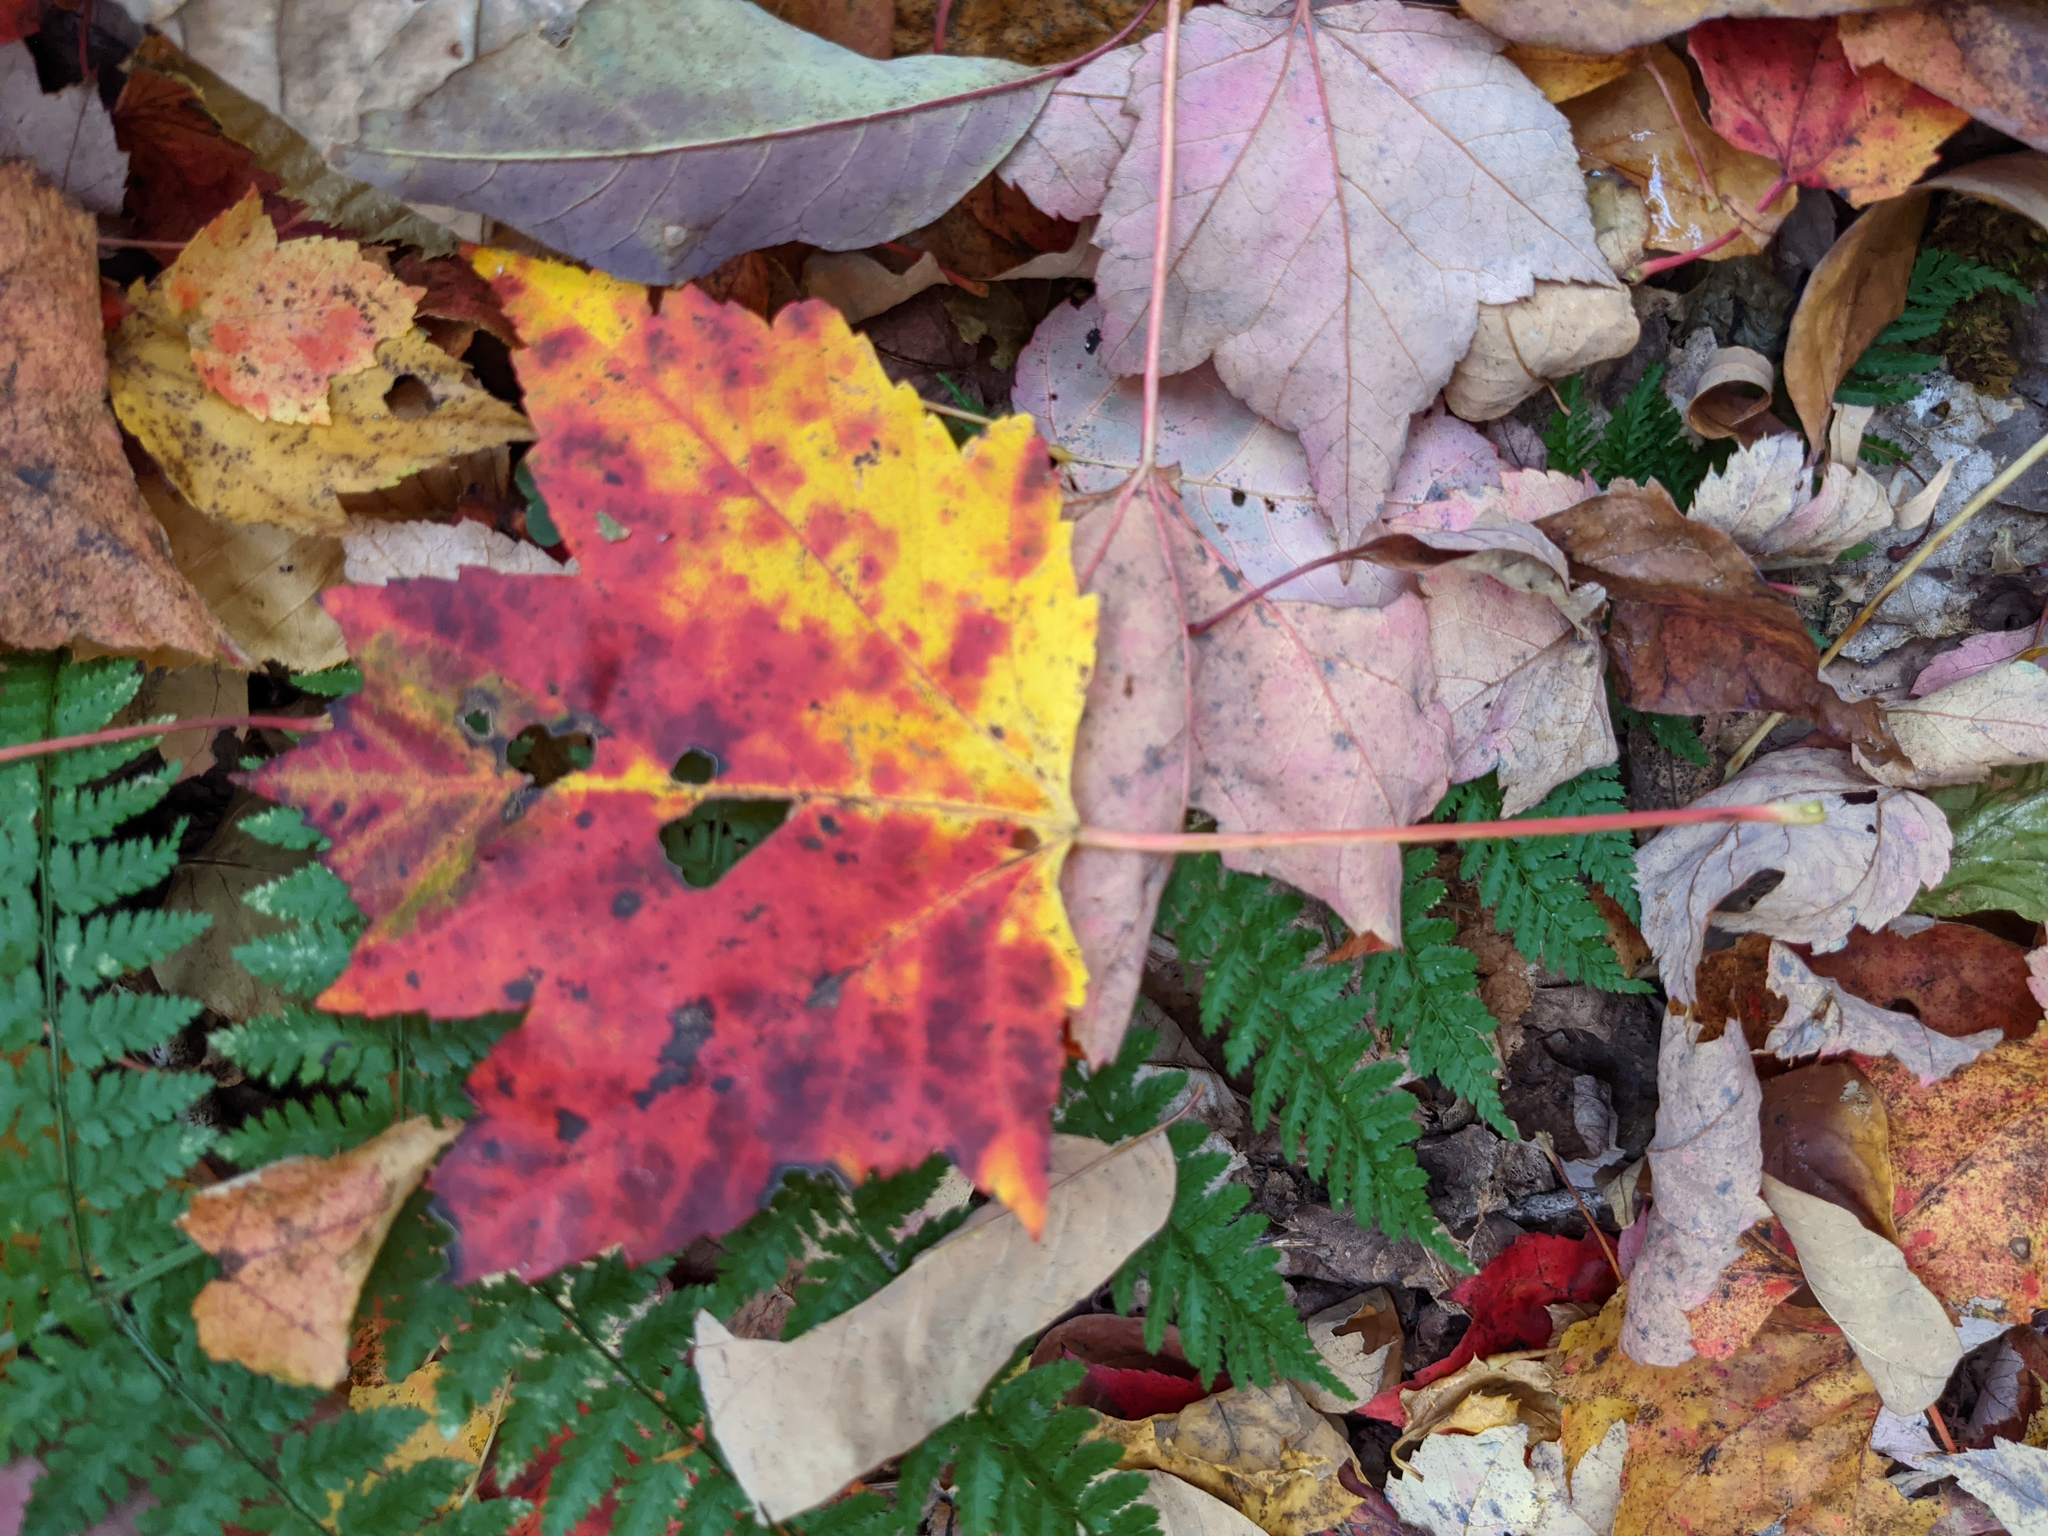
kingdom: Plantae
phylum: Tracheophyta
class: Magnoliopsida
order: Sapindales
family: Sapindaceae
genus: Acer
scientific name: Acer rubrum
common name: Red maple
